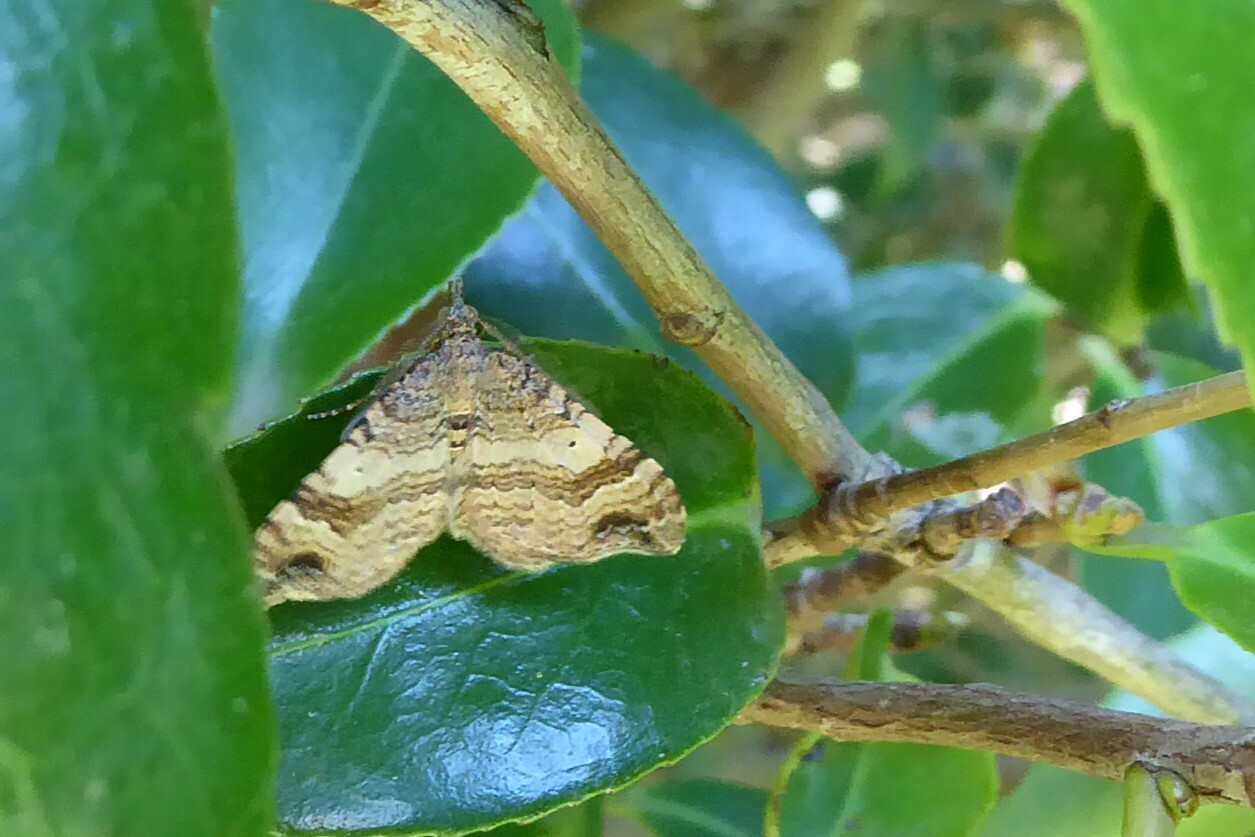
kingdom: Animalia
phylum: Arthropoda
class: Insecta
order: Lepidoptera
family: Geometridae
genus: Homodotis
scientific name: Homodotis megaspilata
